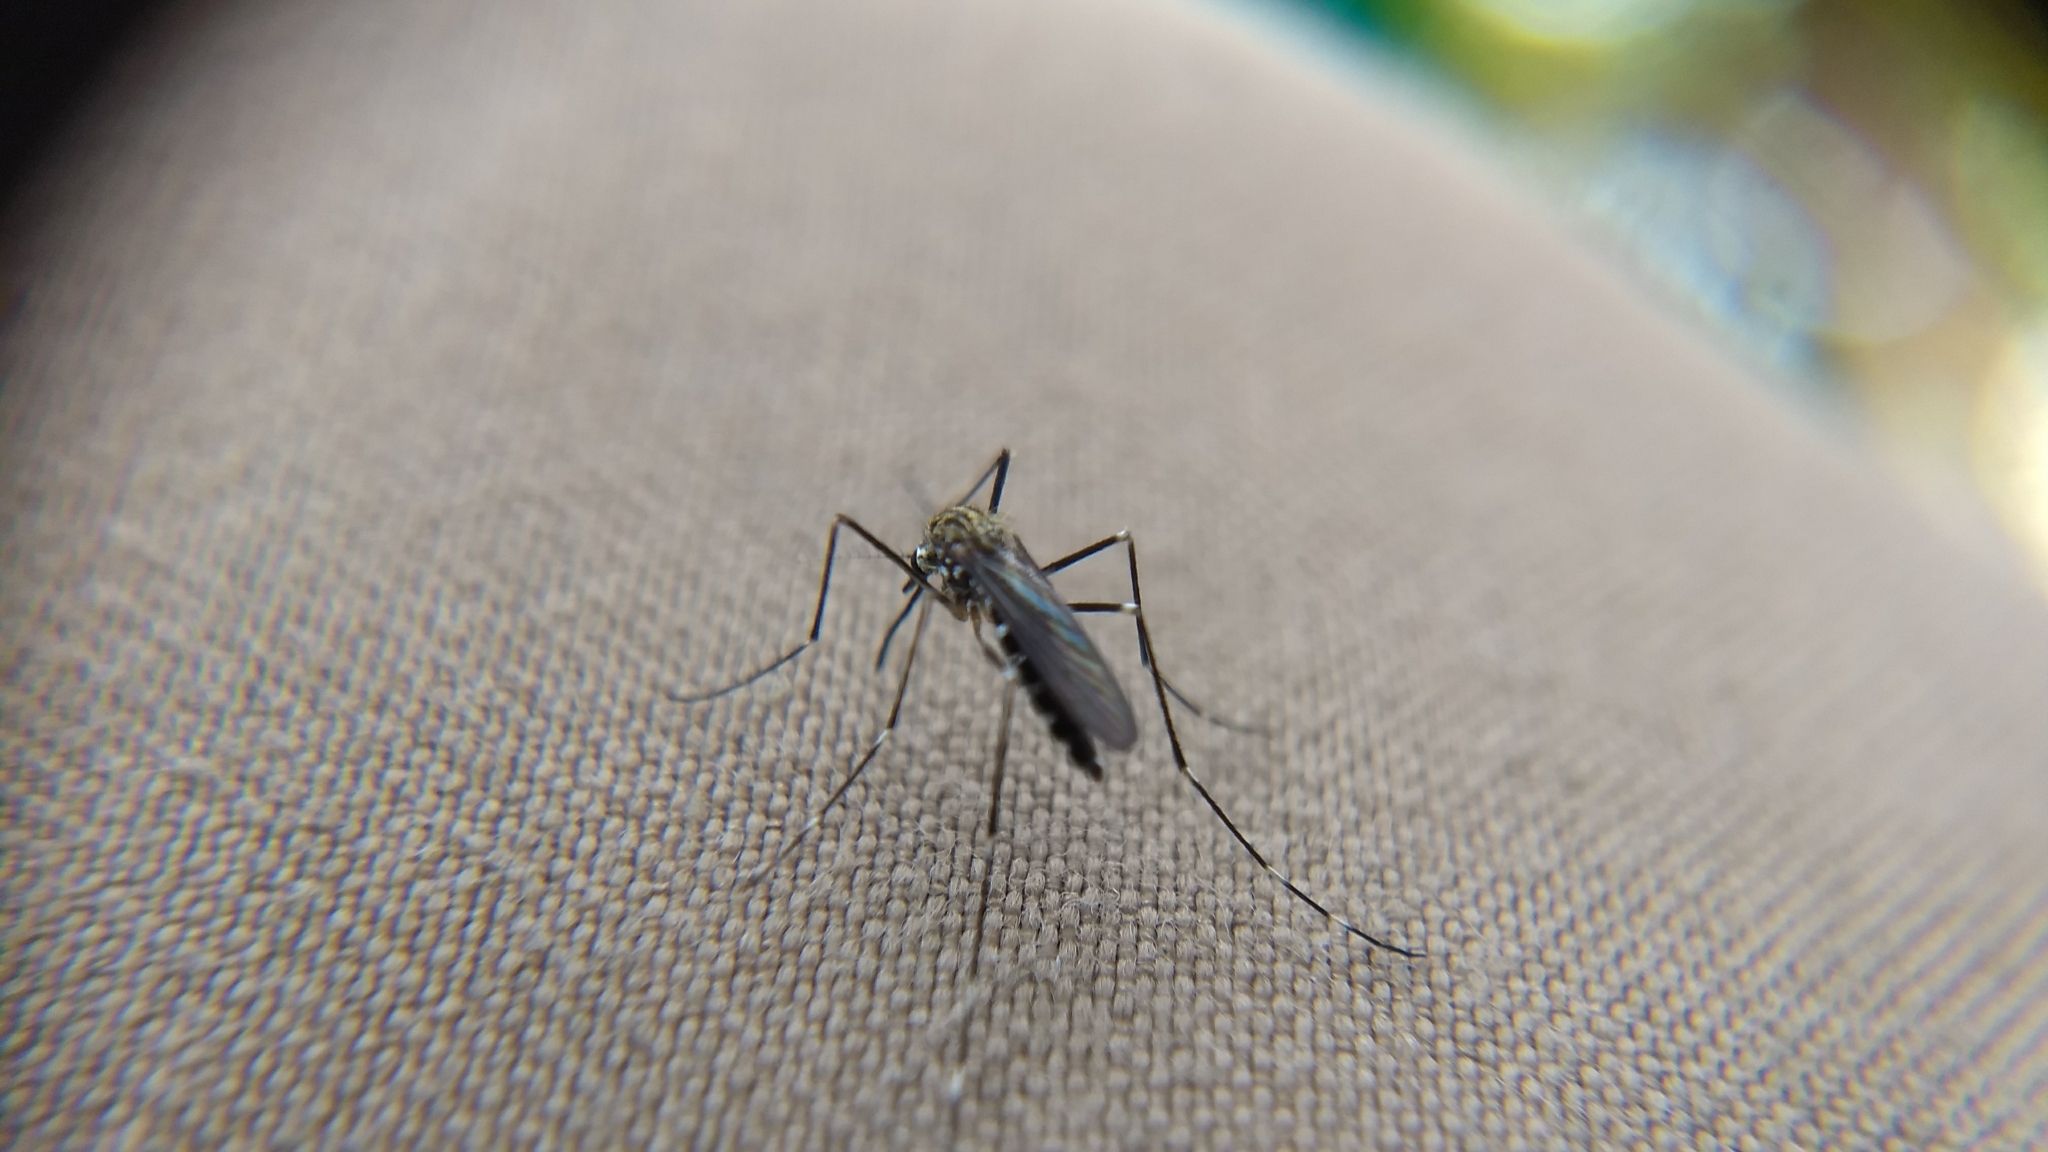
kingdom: Animalia
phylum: Arthropoda
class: Insecta
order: Diptera
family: Culicidae
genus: Aedes
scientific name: Aedes japonicus
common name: Asian bush mosquito
